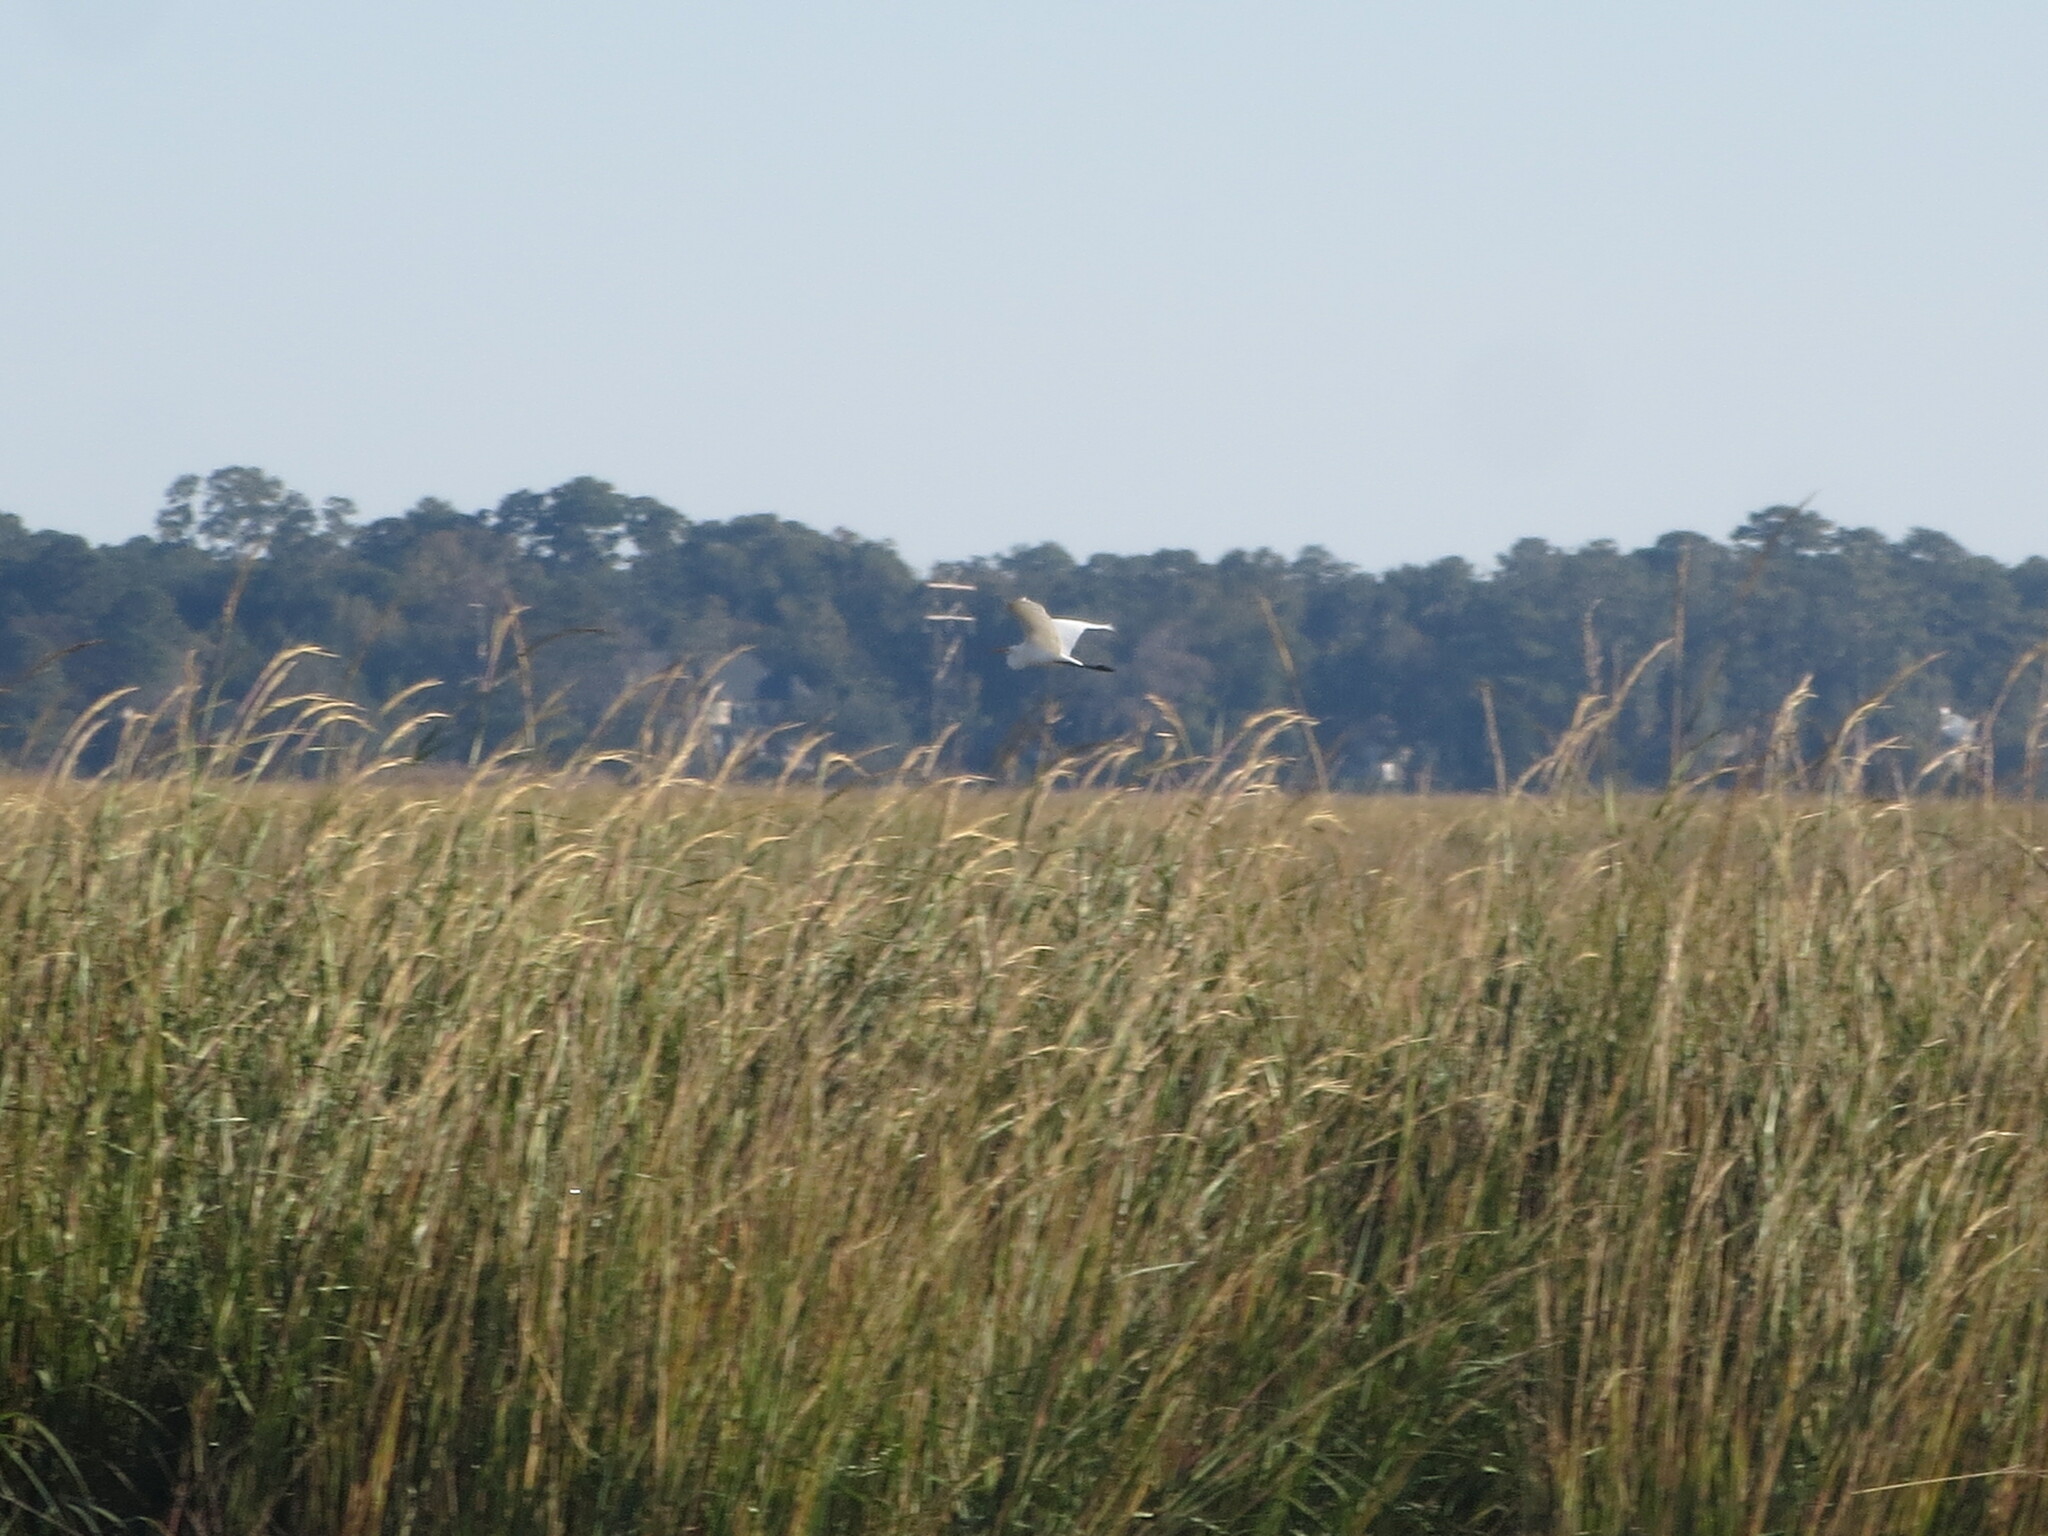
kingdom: Animalia
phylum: Chordata
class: Aves
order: Pelecaniformes
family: Ardeidae
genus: Ardea
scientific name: Ardea alba
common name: Great egret
